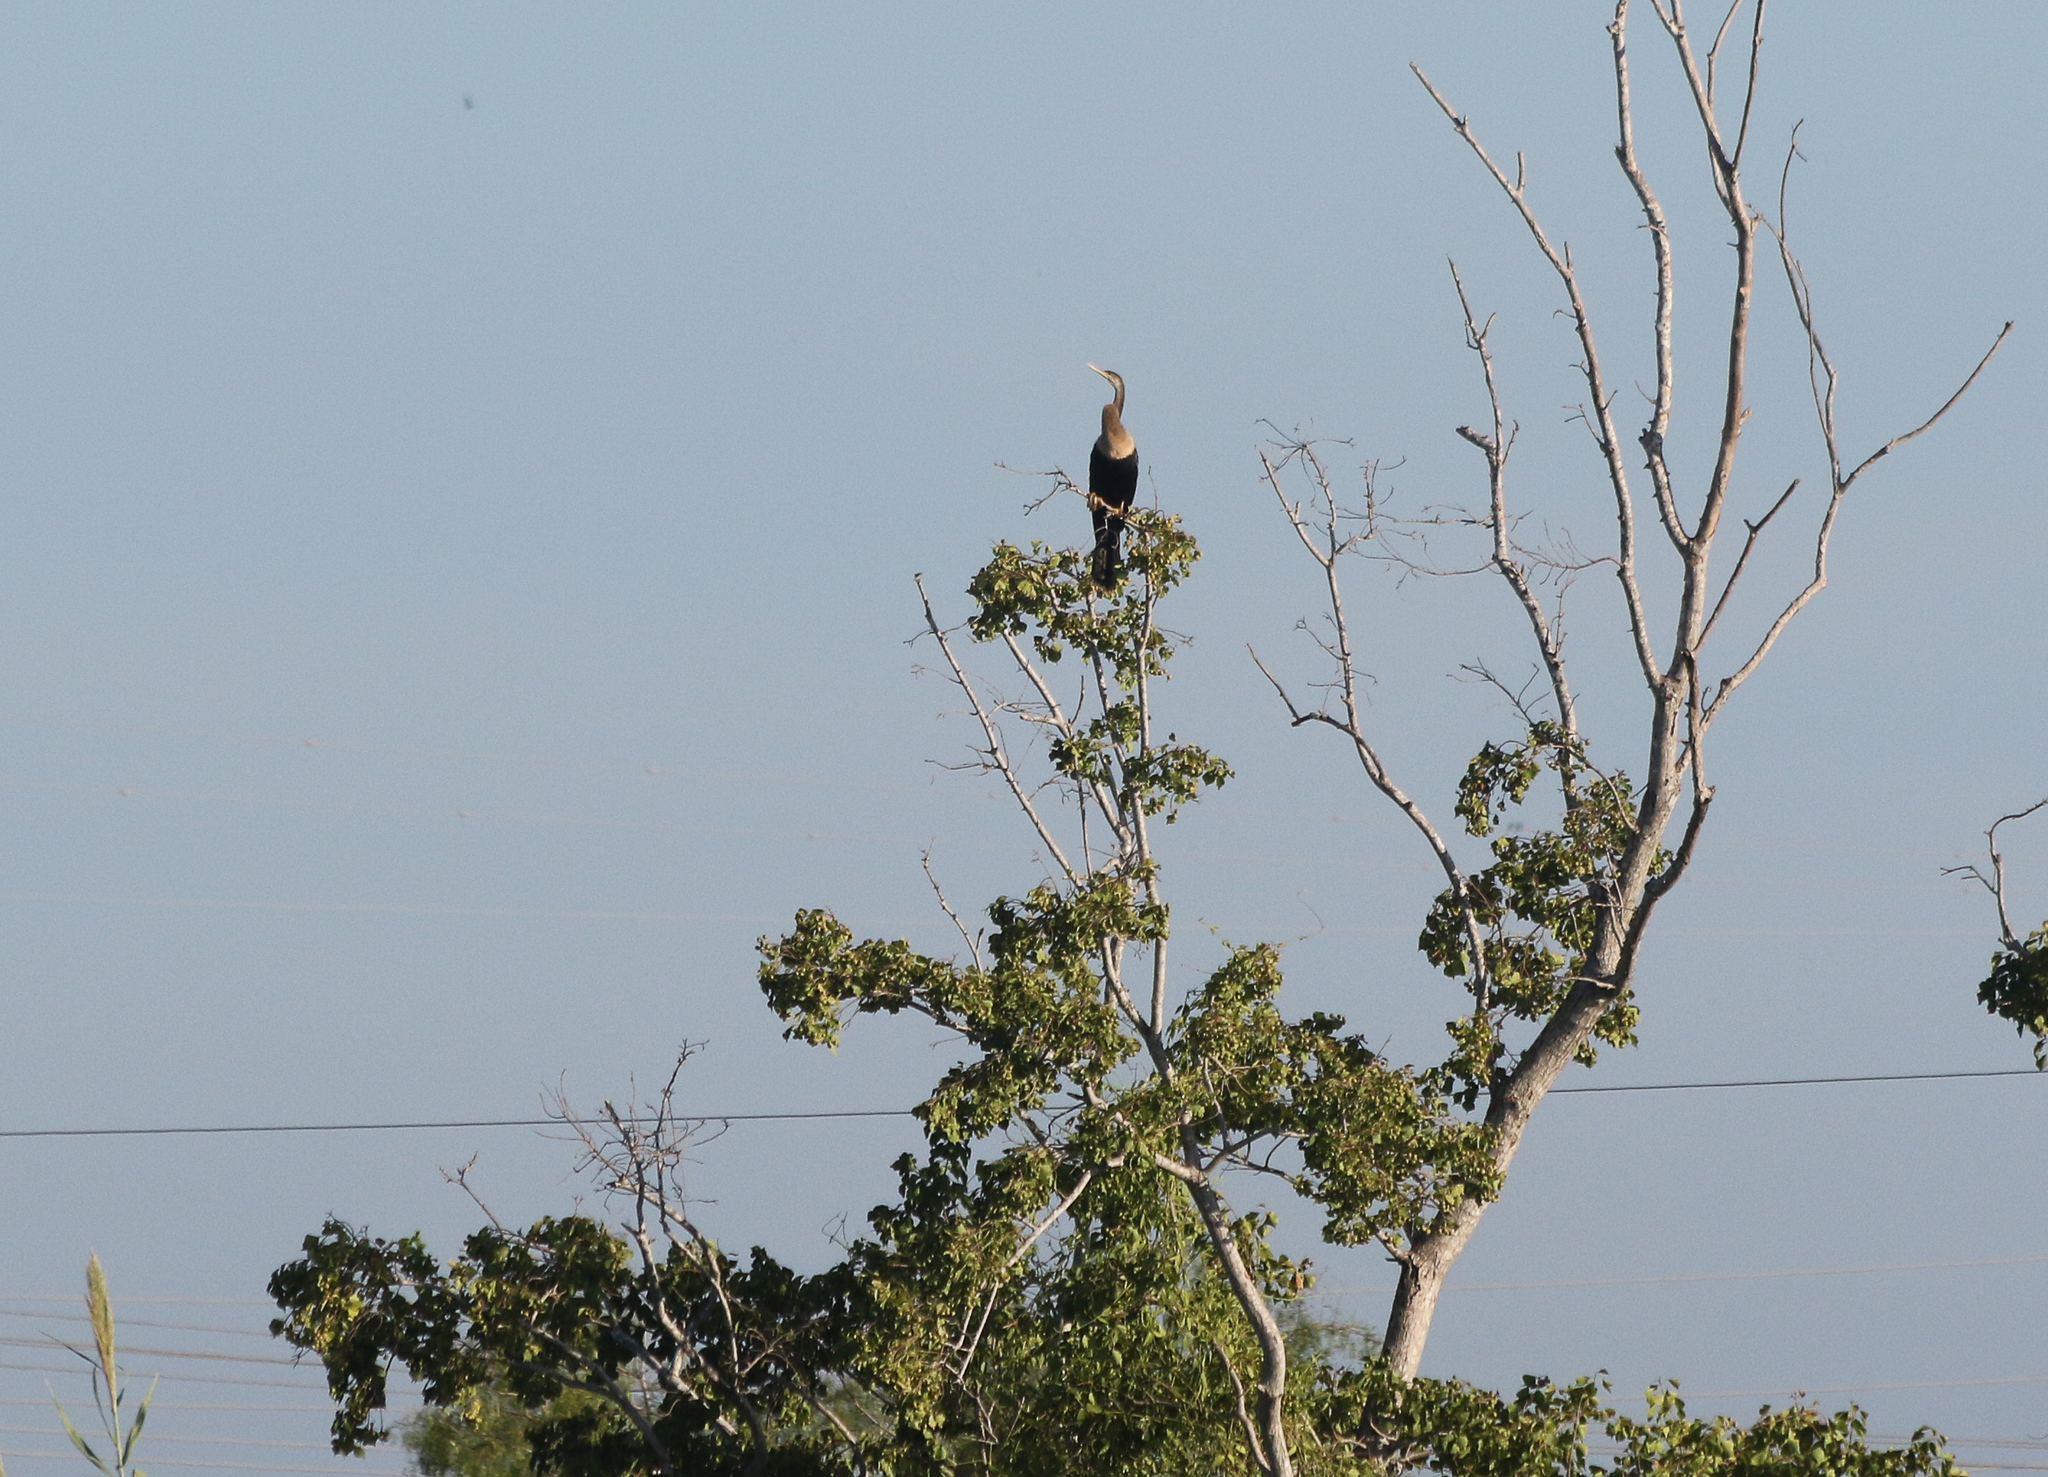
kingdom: Animalia
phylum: Chordata
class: Aves
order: Suliformes
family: Anhingidae
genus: Anhinga
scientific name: Anhinga anhinga
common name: Anhinga
